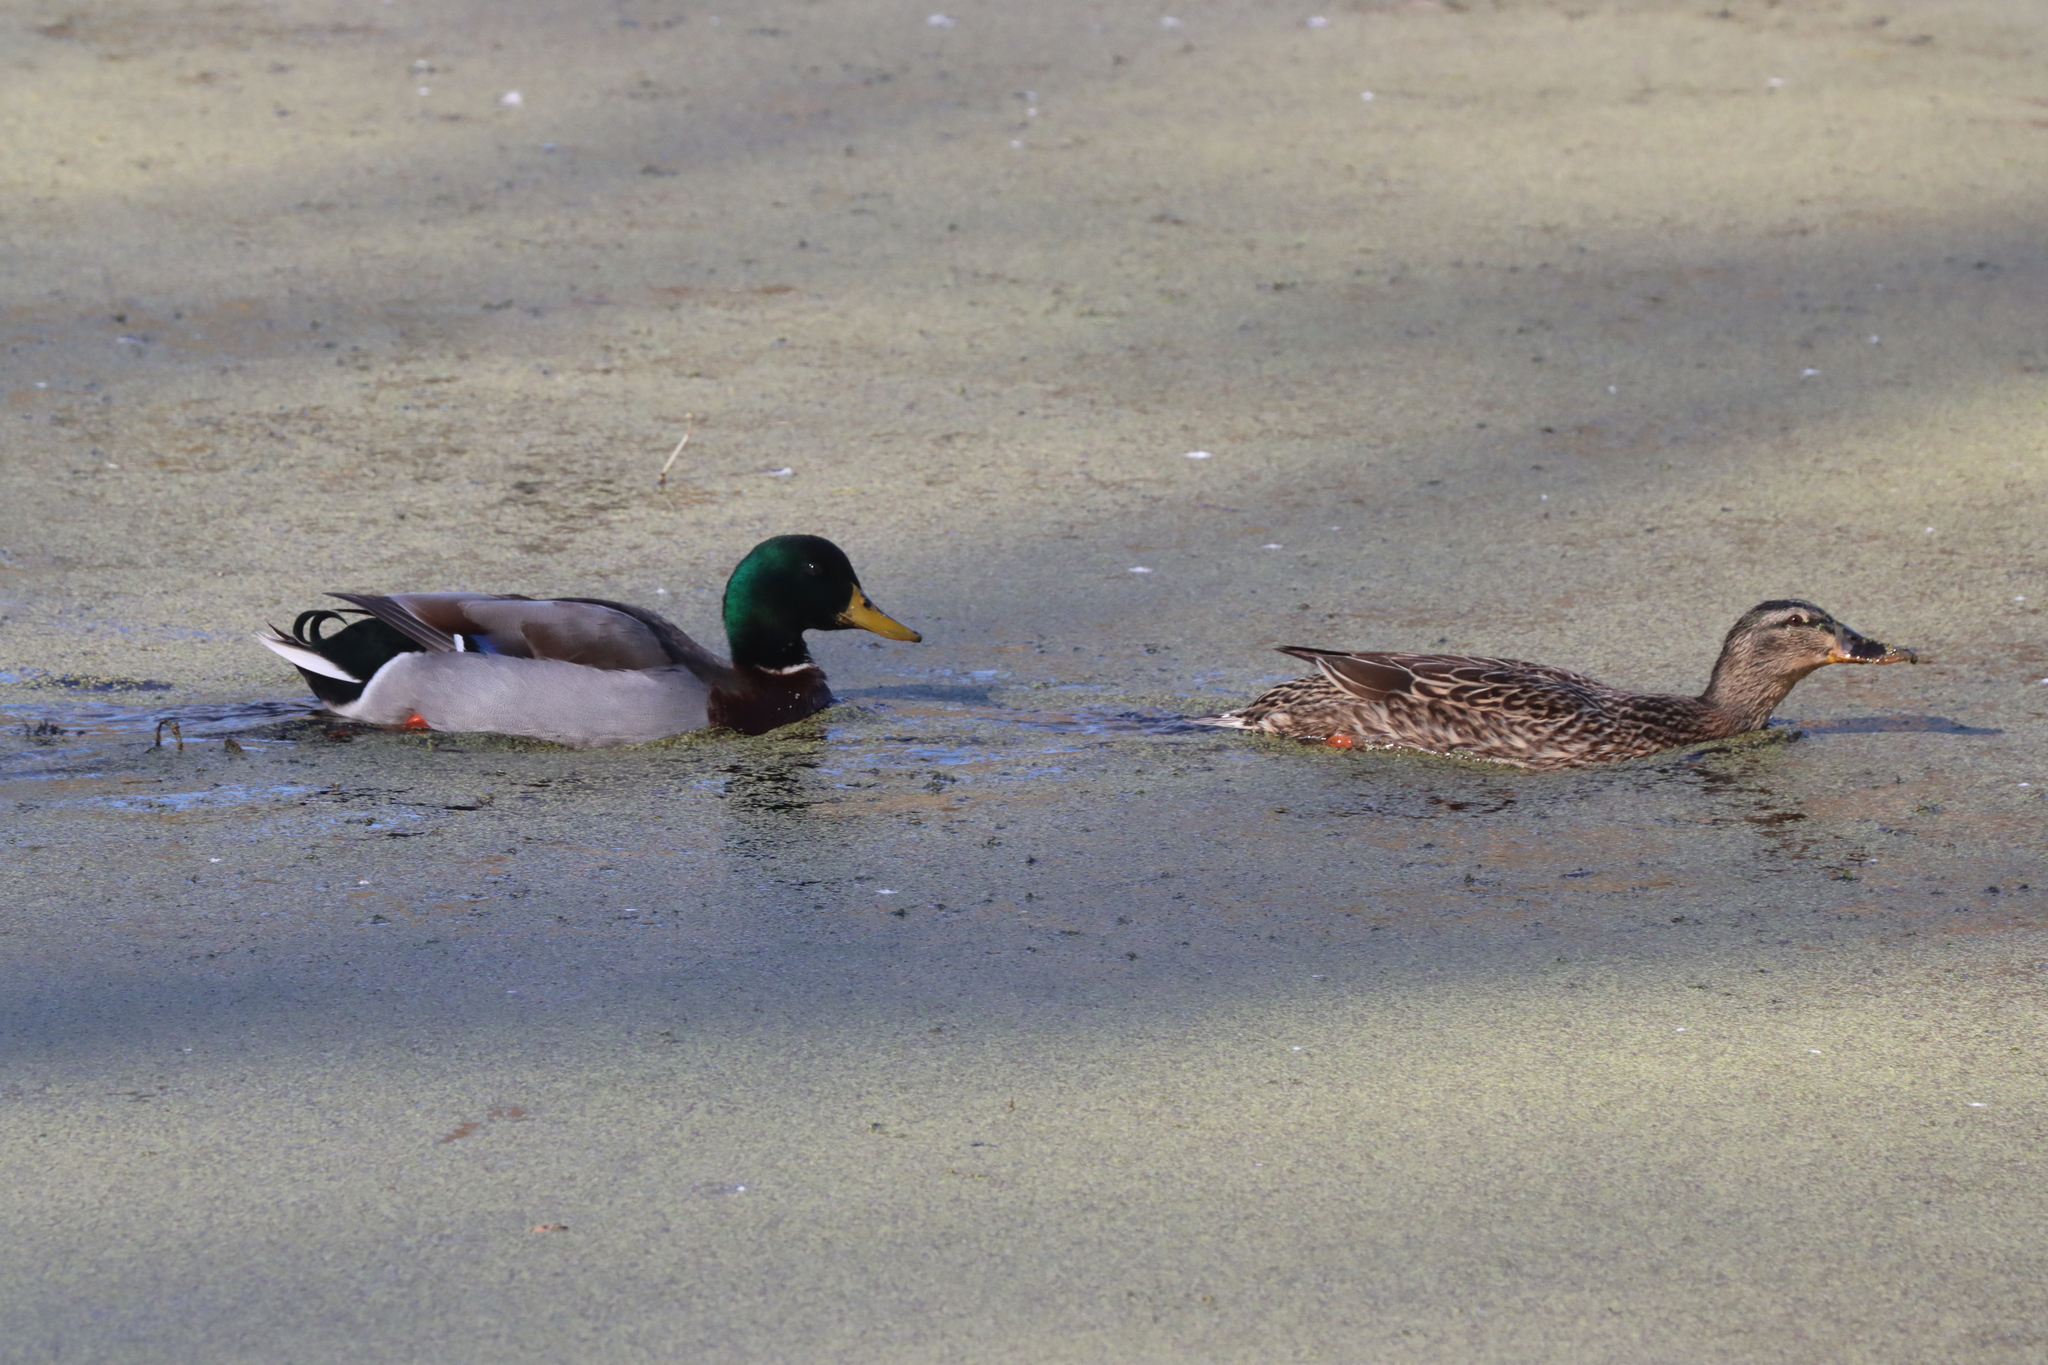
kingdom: Animalia
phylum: Chordata
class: Aves
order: Anseriformes
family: Anatidae
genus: Anas
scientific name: Anas platyrhynchos
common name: Mallard
